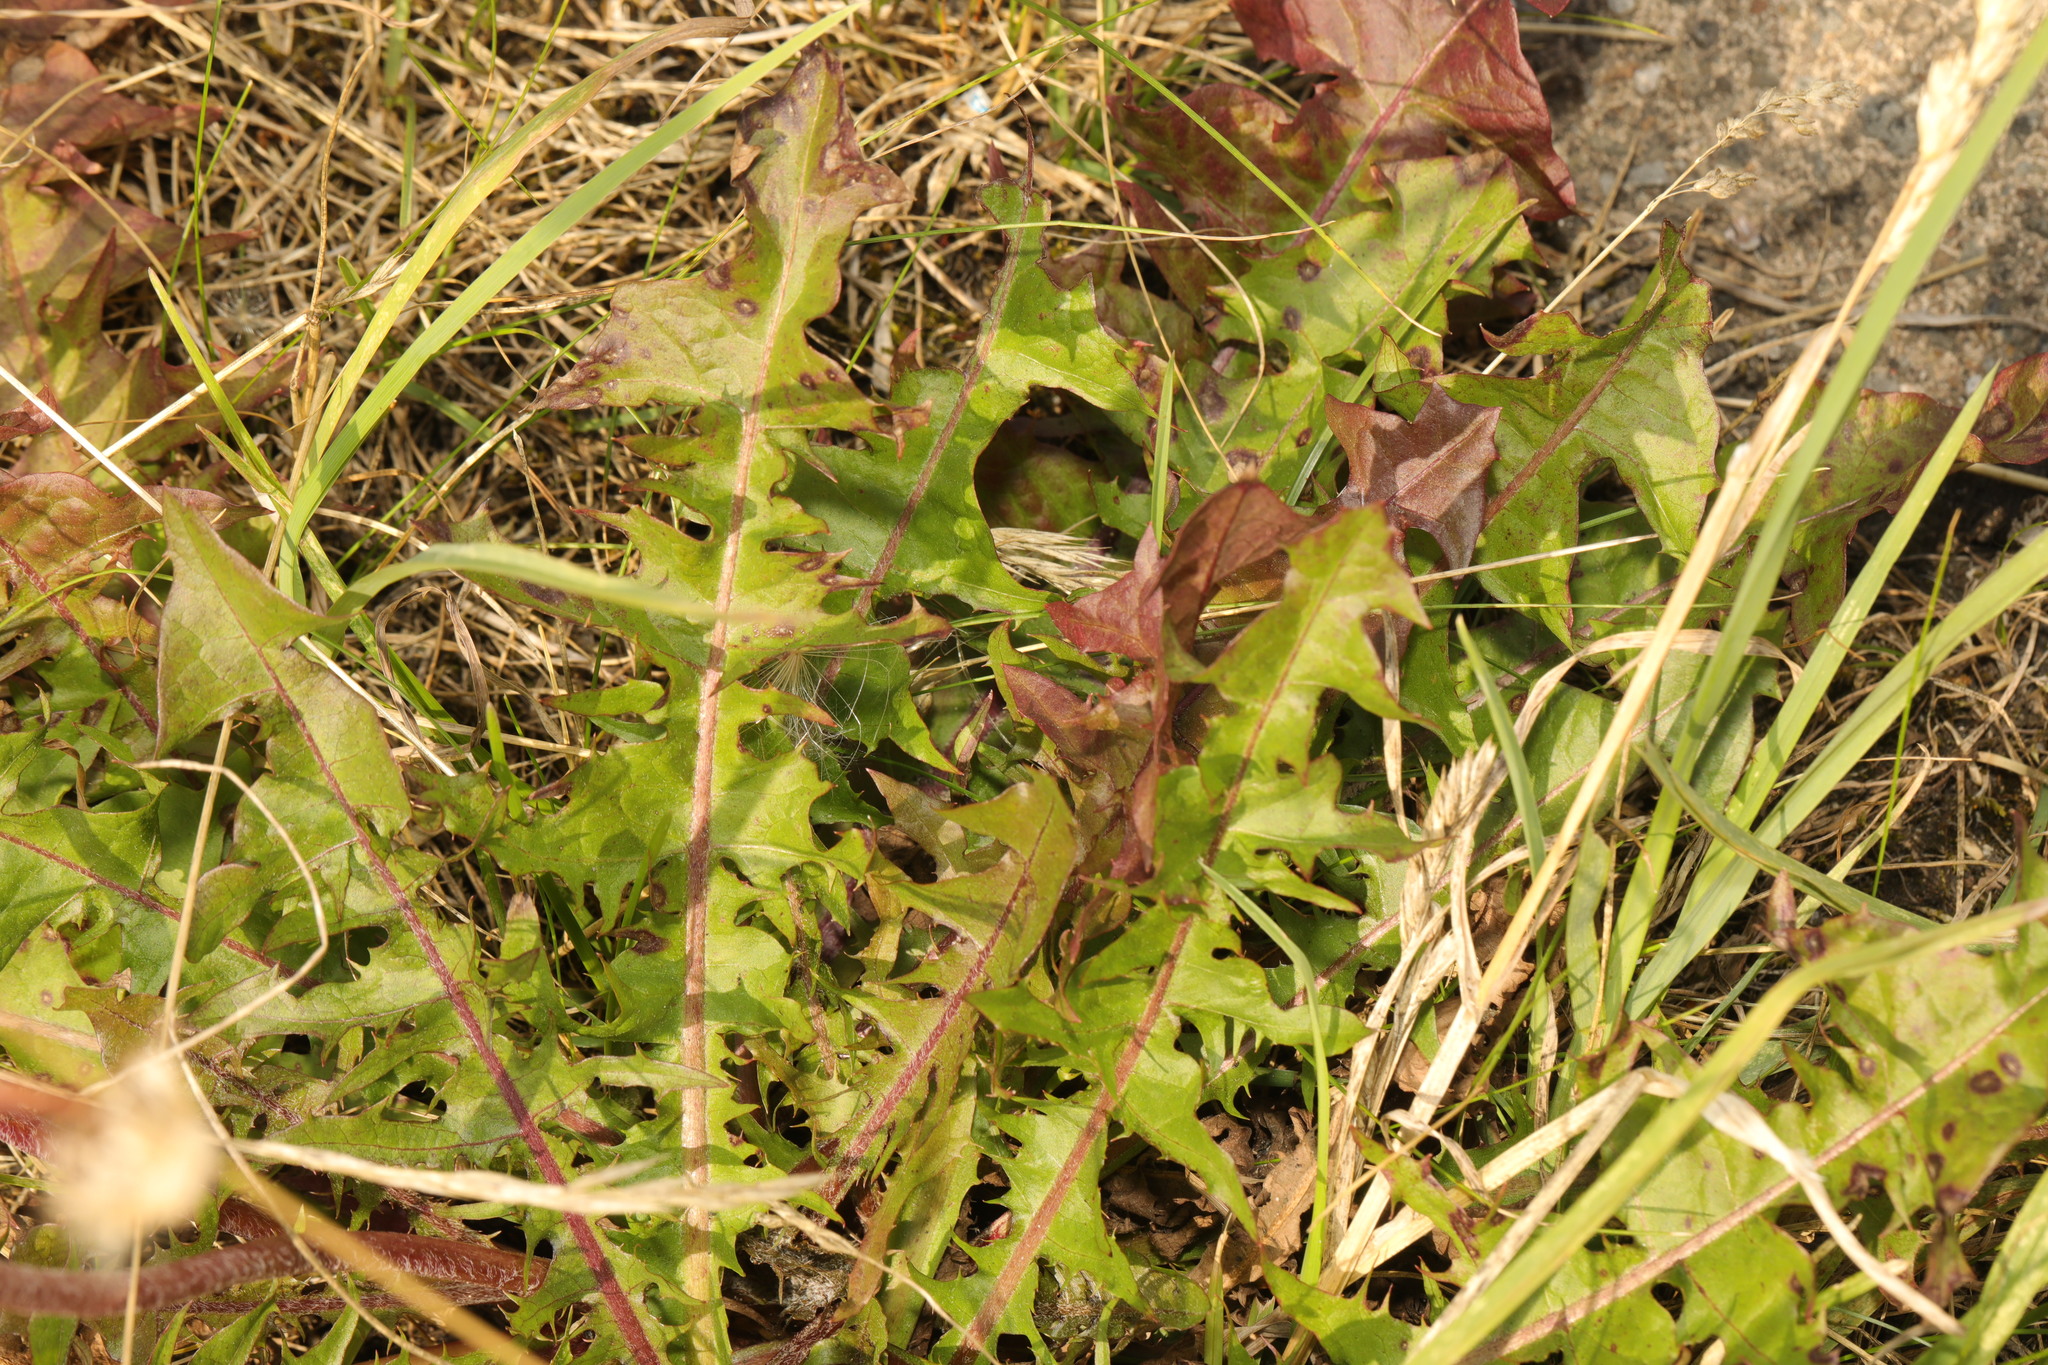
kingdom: Plantae
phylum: Tracheophyta
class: Magnoliopsida
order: Asterales
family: Asteraceae
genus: Taraxacum
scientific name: Taraxacum officinale
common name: Common dandelion
